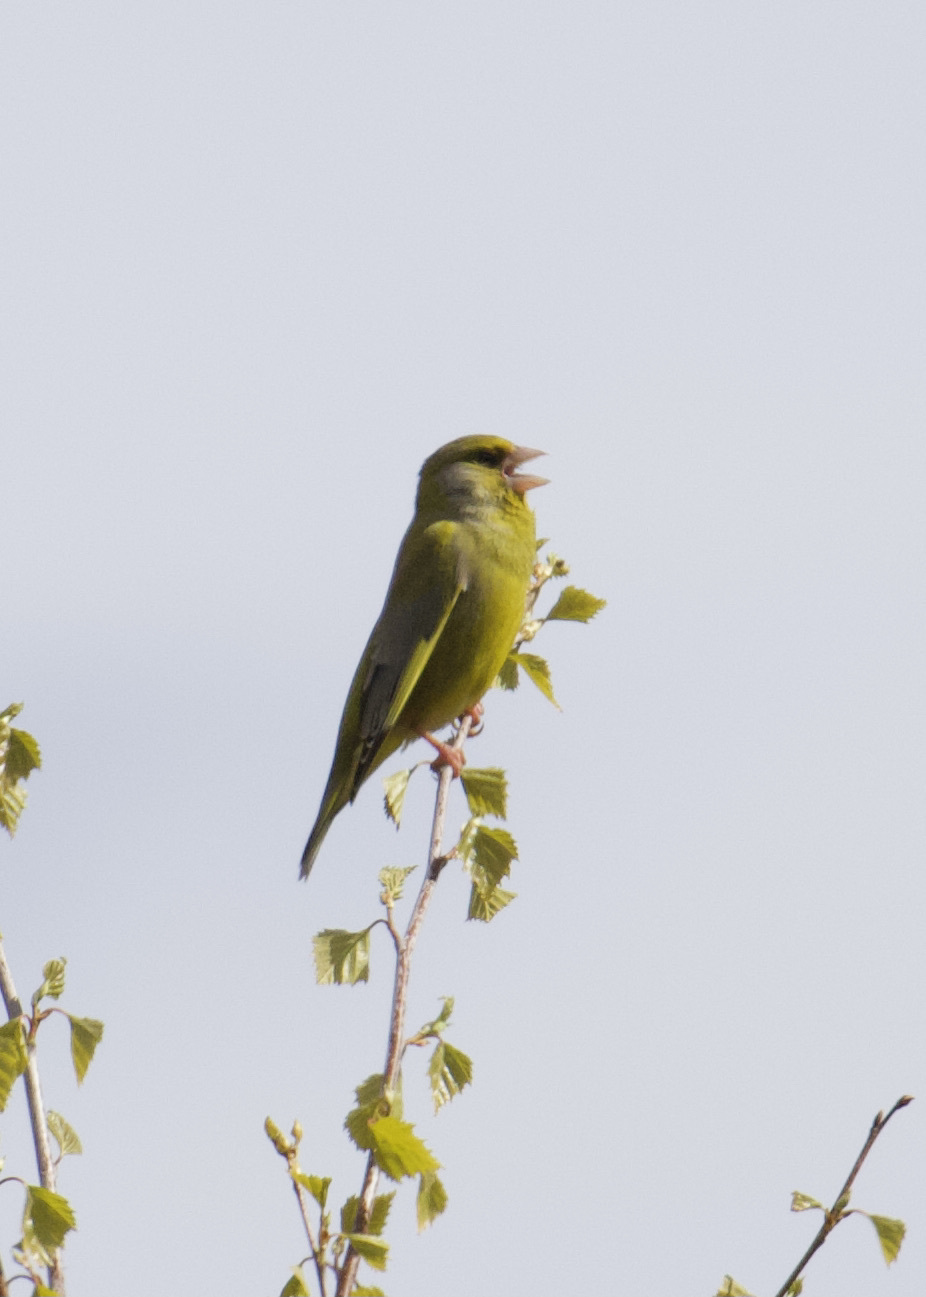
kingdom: Plantae
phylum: Tracheophyta
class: Liliopsida
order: Poales
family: Poaceae
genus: Chloris
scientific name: Chloris chloris
